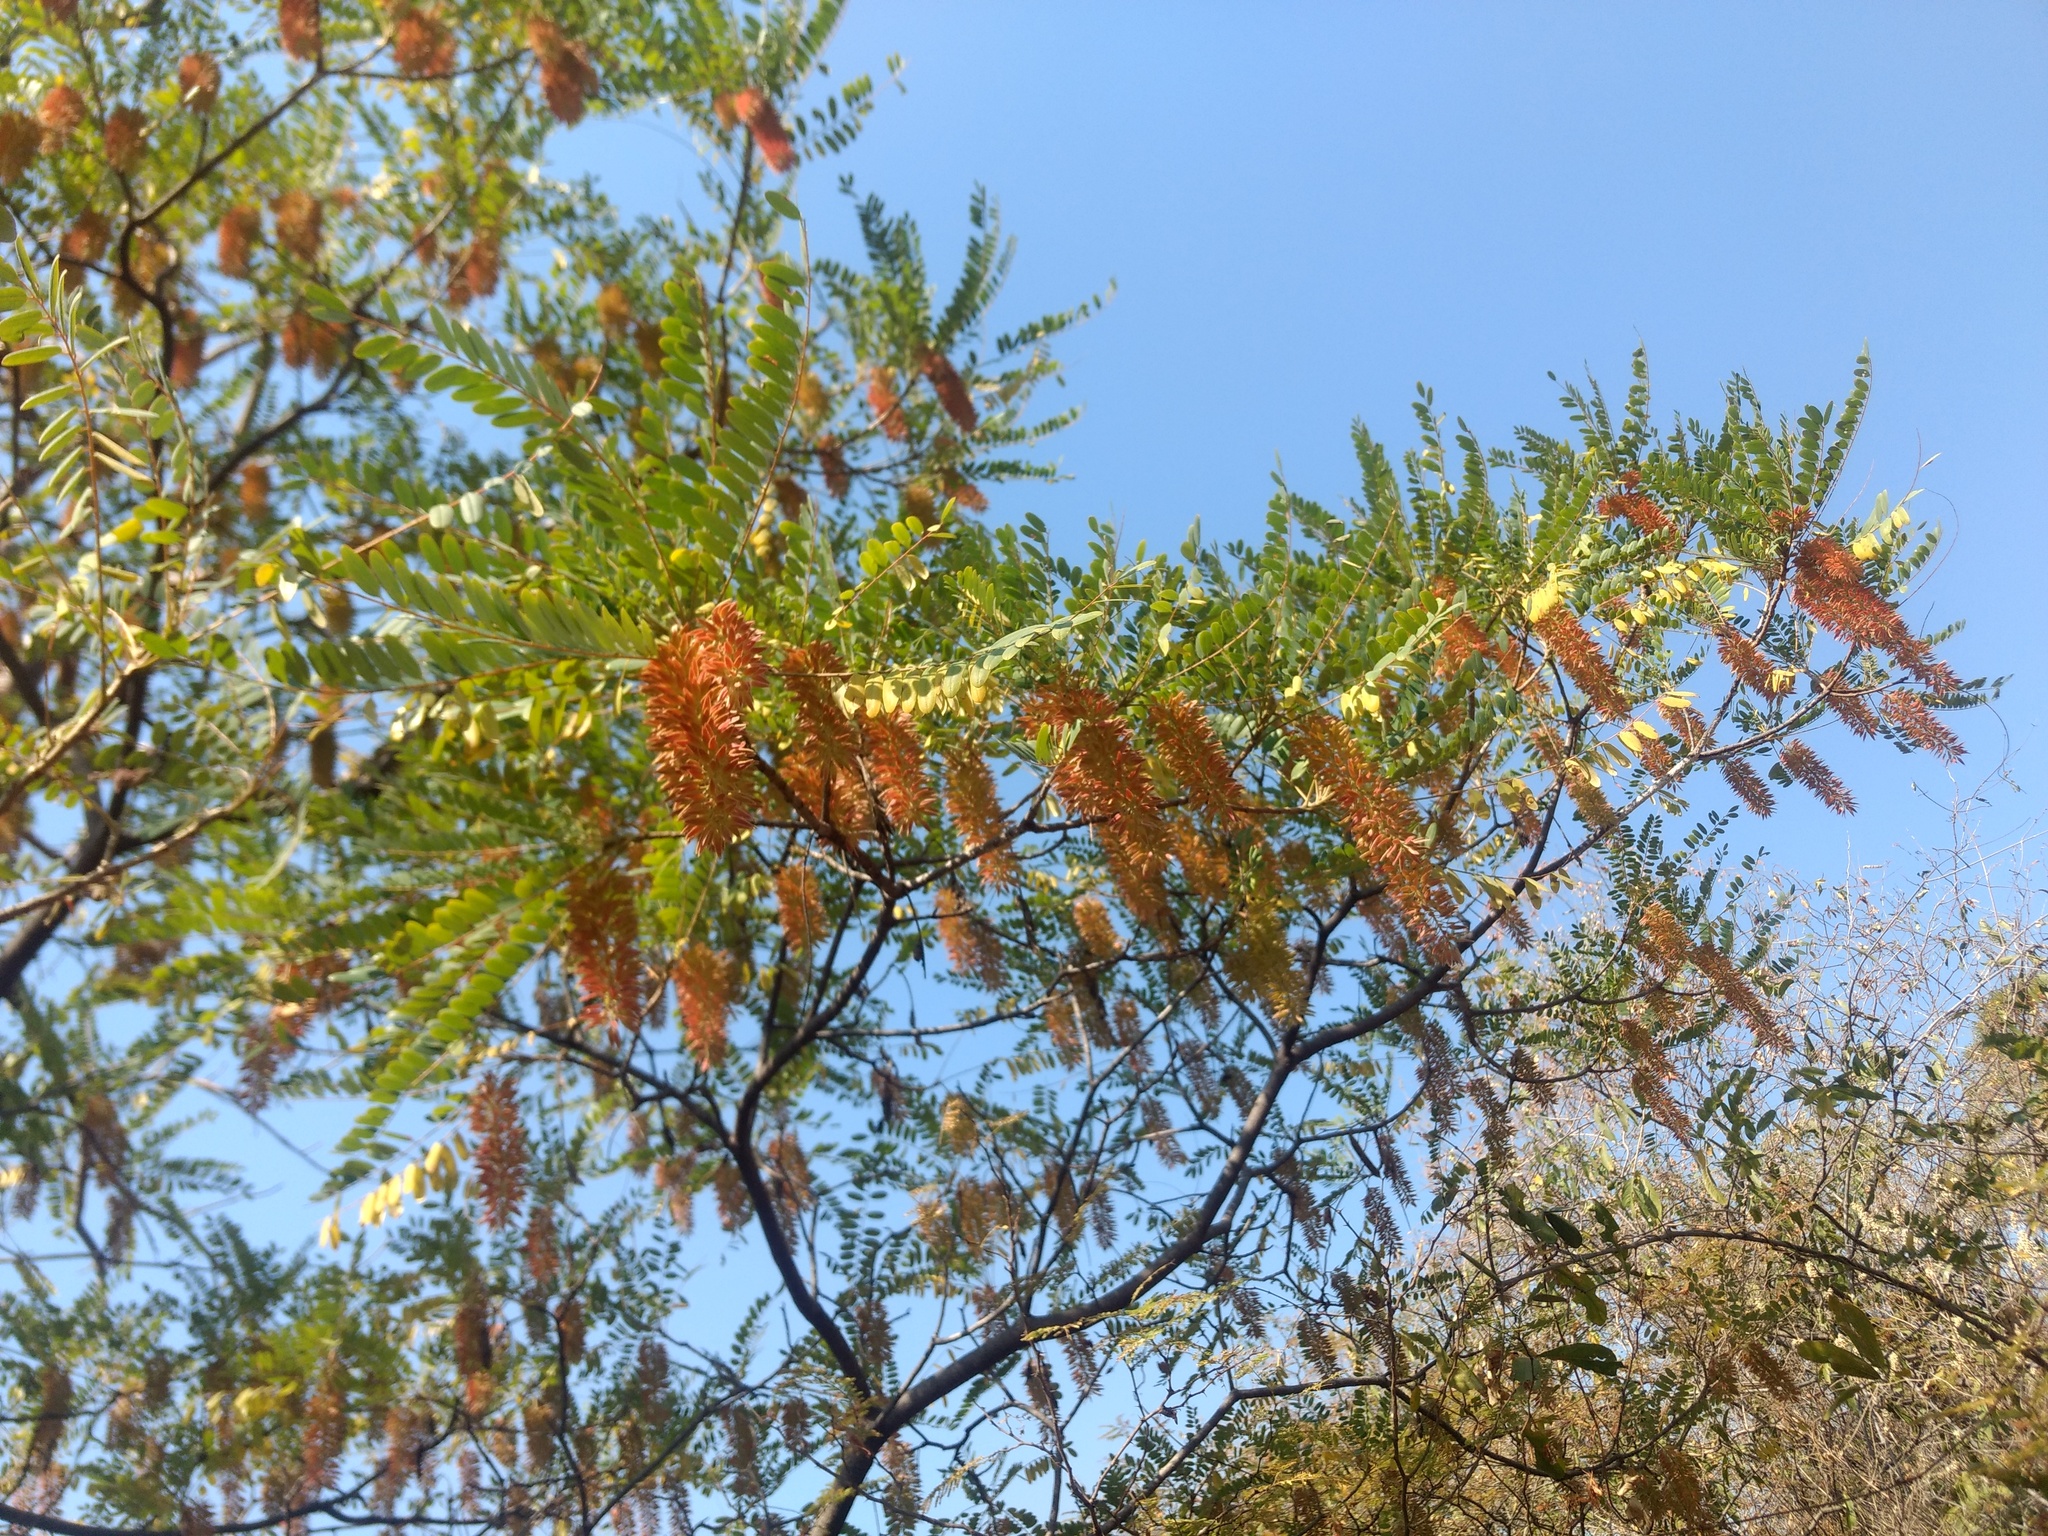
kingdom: Plantae
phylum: Tracheophyta
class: Magnoliopsida
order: Picramniales
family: Picramniaceae
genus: Alvaradoa
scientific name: Alvaradoa amorphoides
